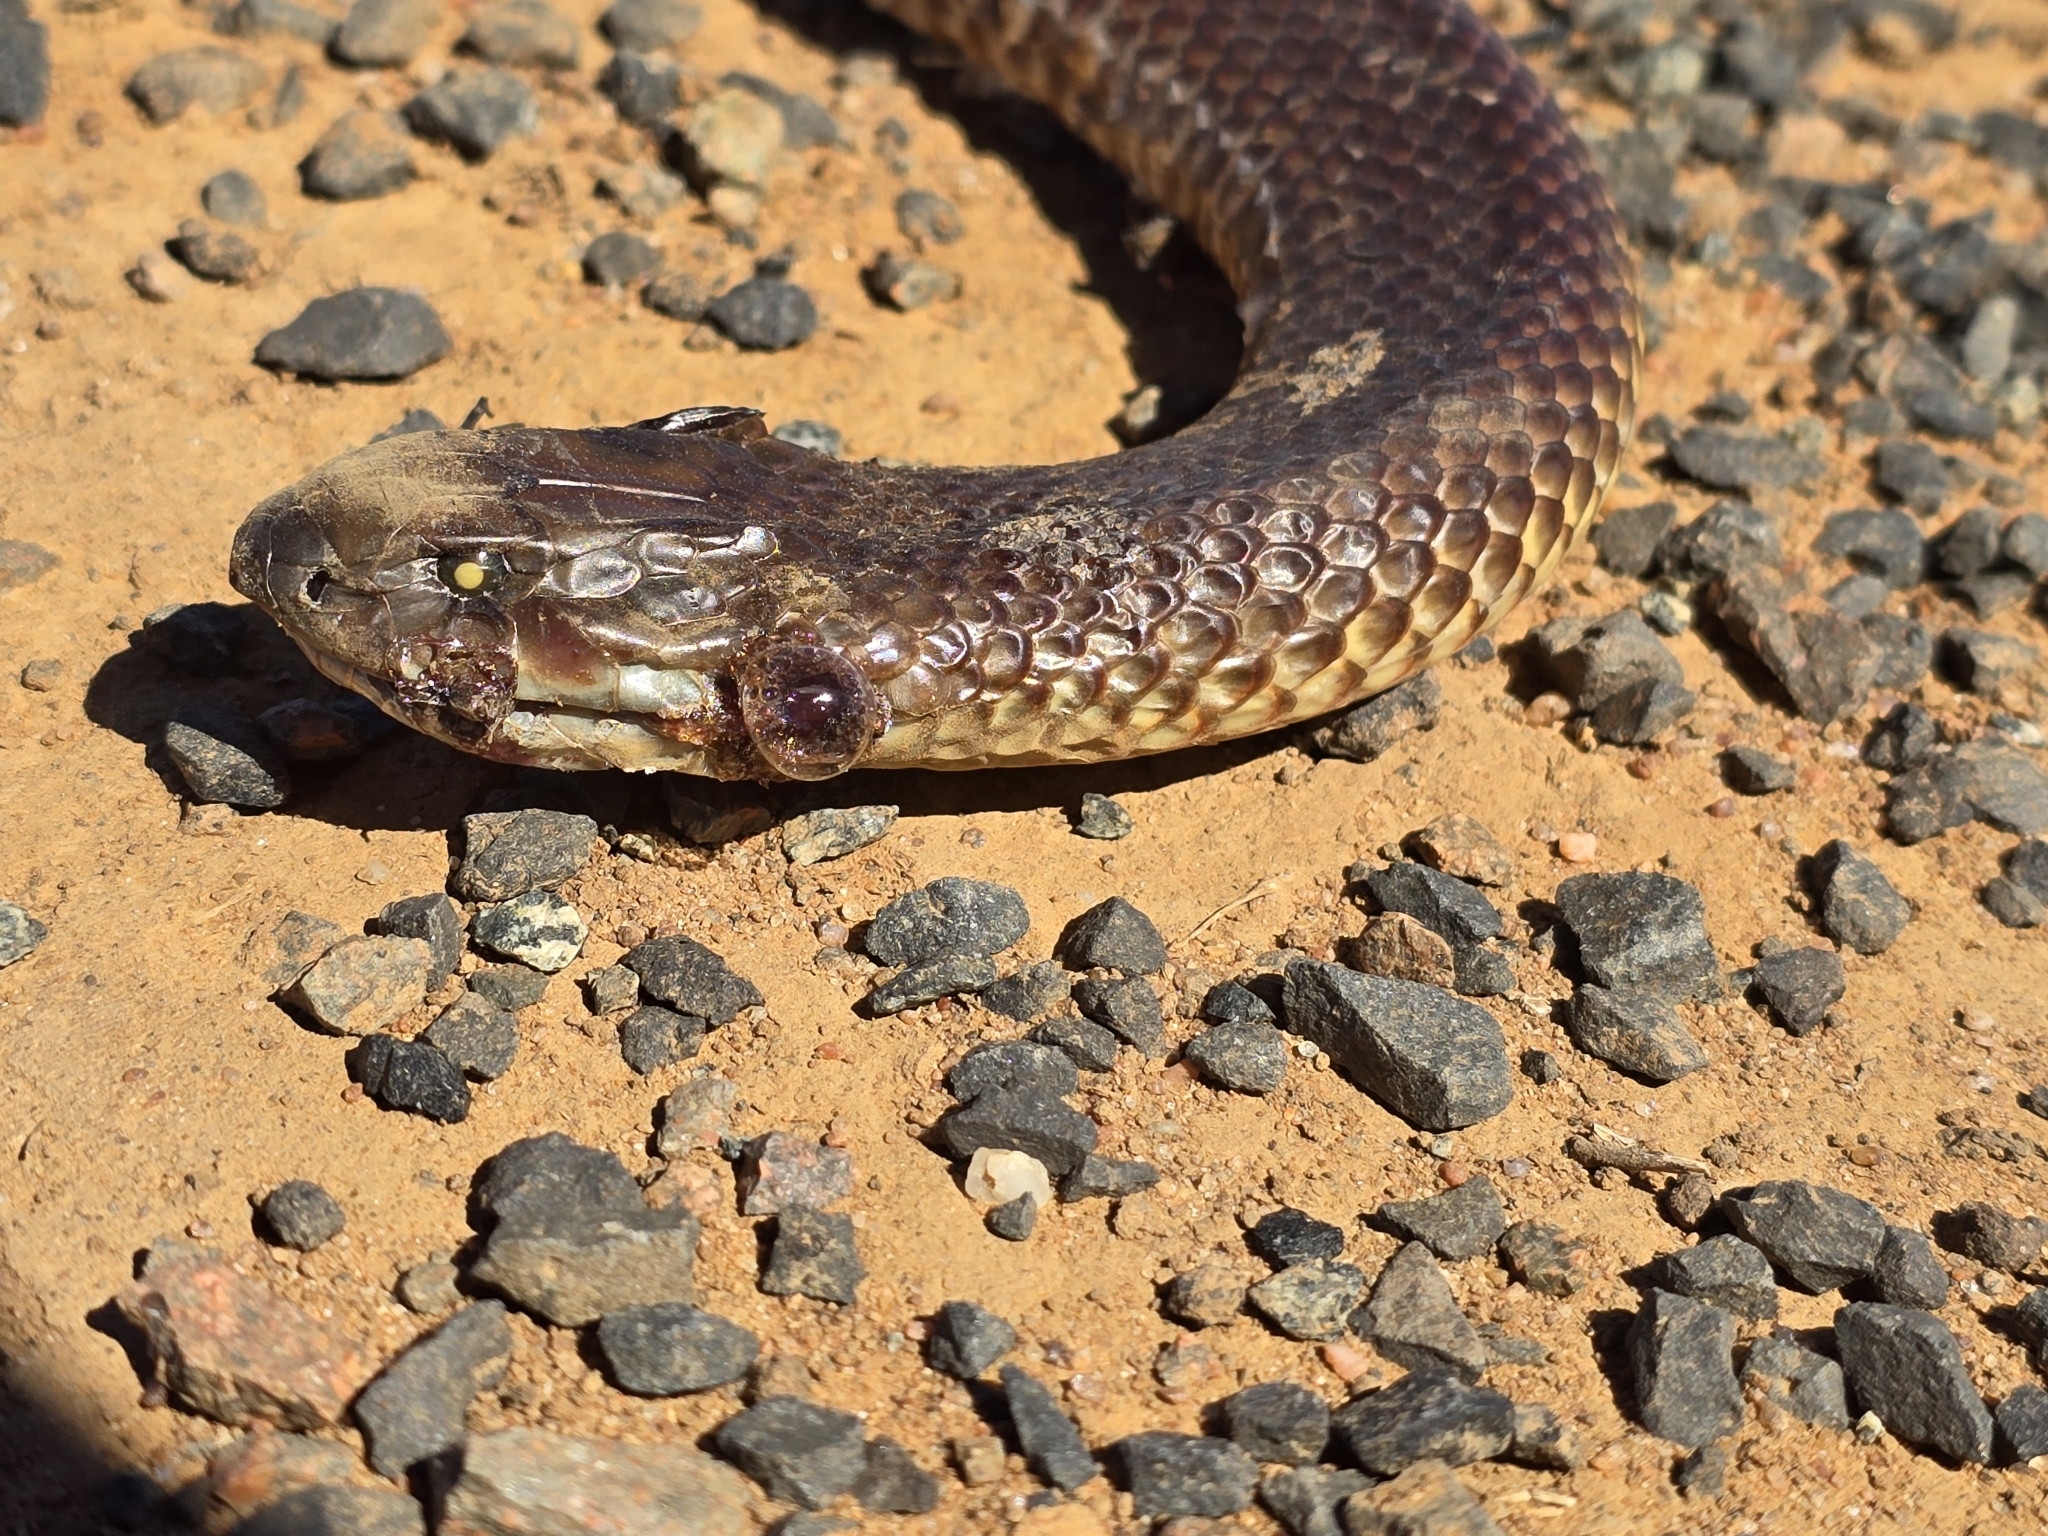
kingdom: Animalia
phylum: Chordata
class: Squamata
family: Elapidae
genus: Pseudechis
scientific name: Pseudechis australis
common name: King brown snake
